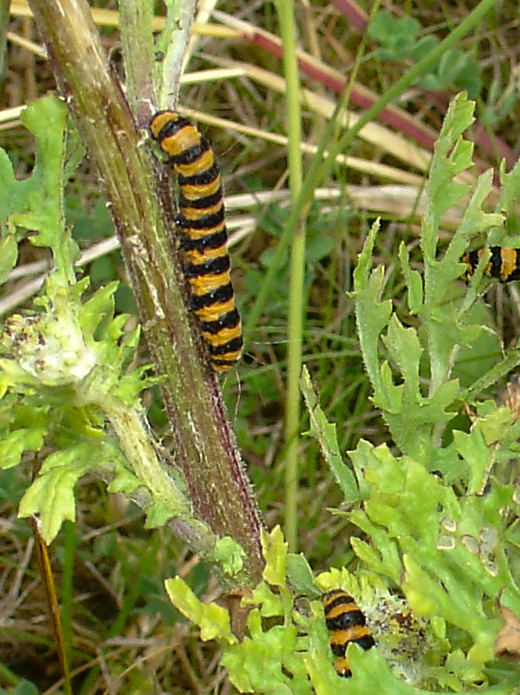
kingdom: Animalia
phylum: Arthropoda
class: Insecta
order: Lepidoptera
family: Erebidae
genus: Tyria
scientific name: Tyria jacobaeae
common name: Cinnabar
